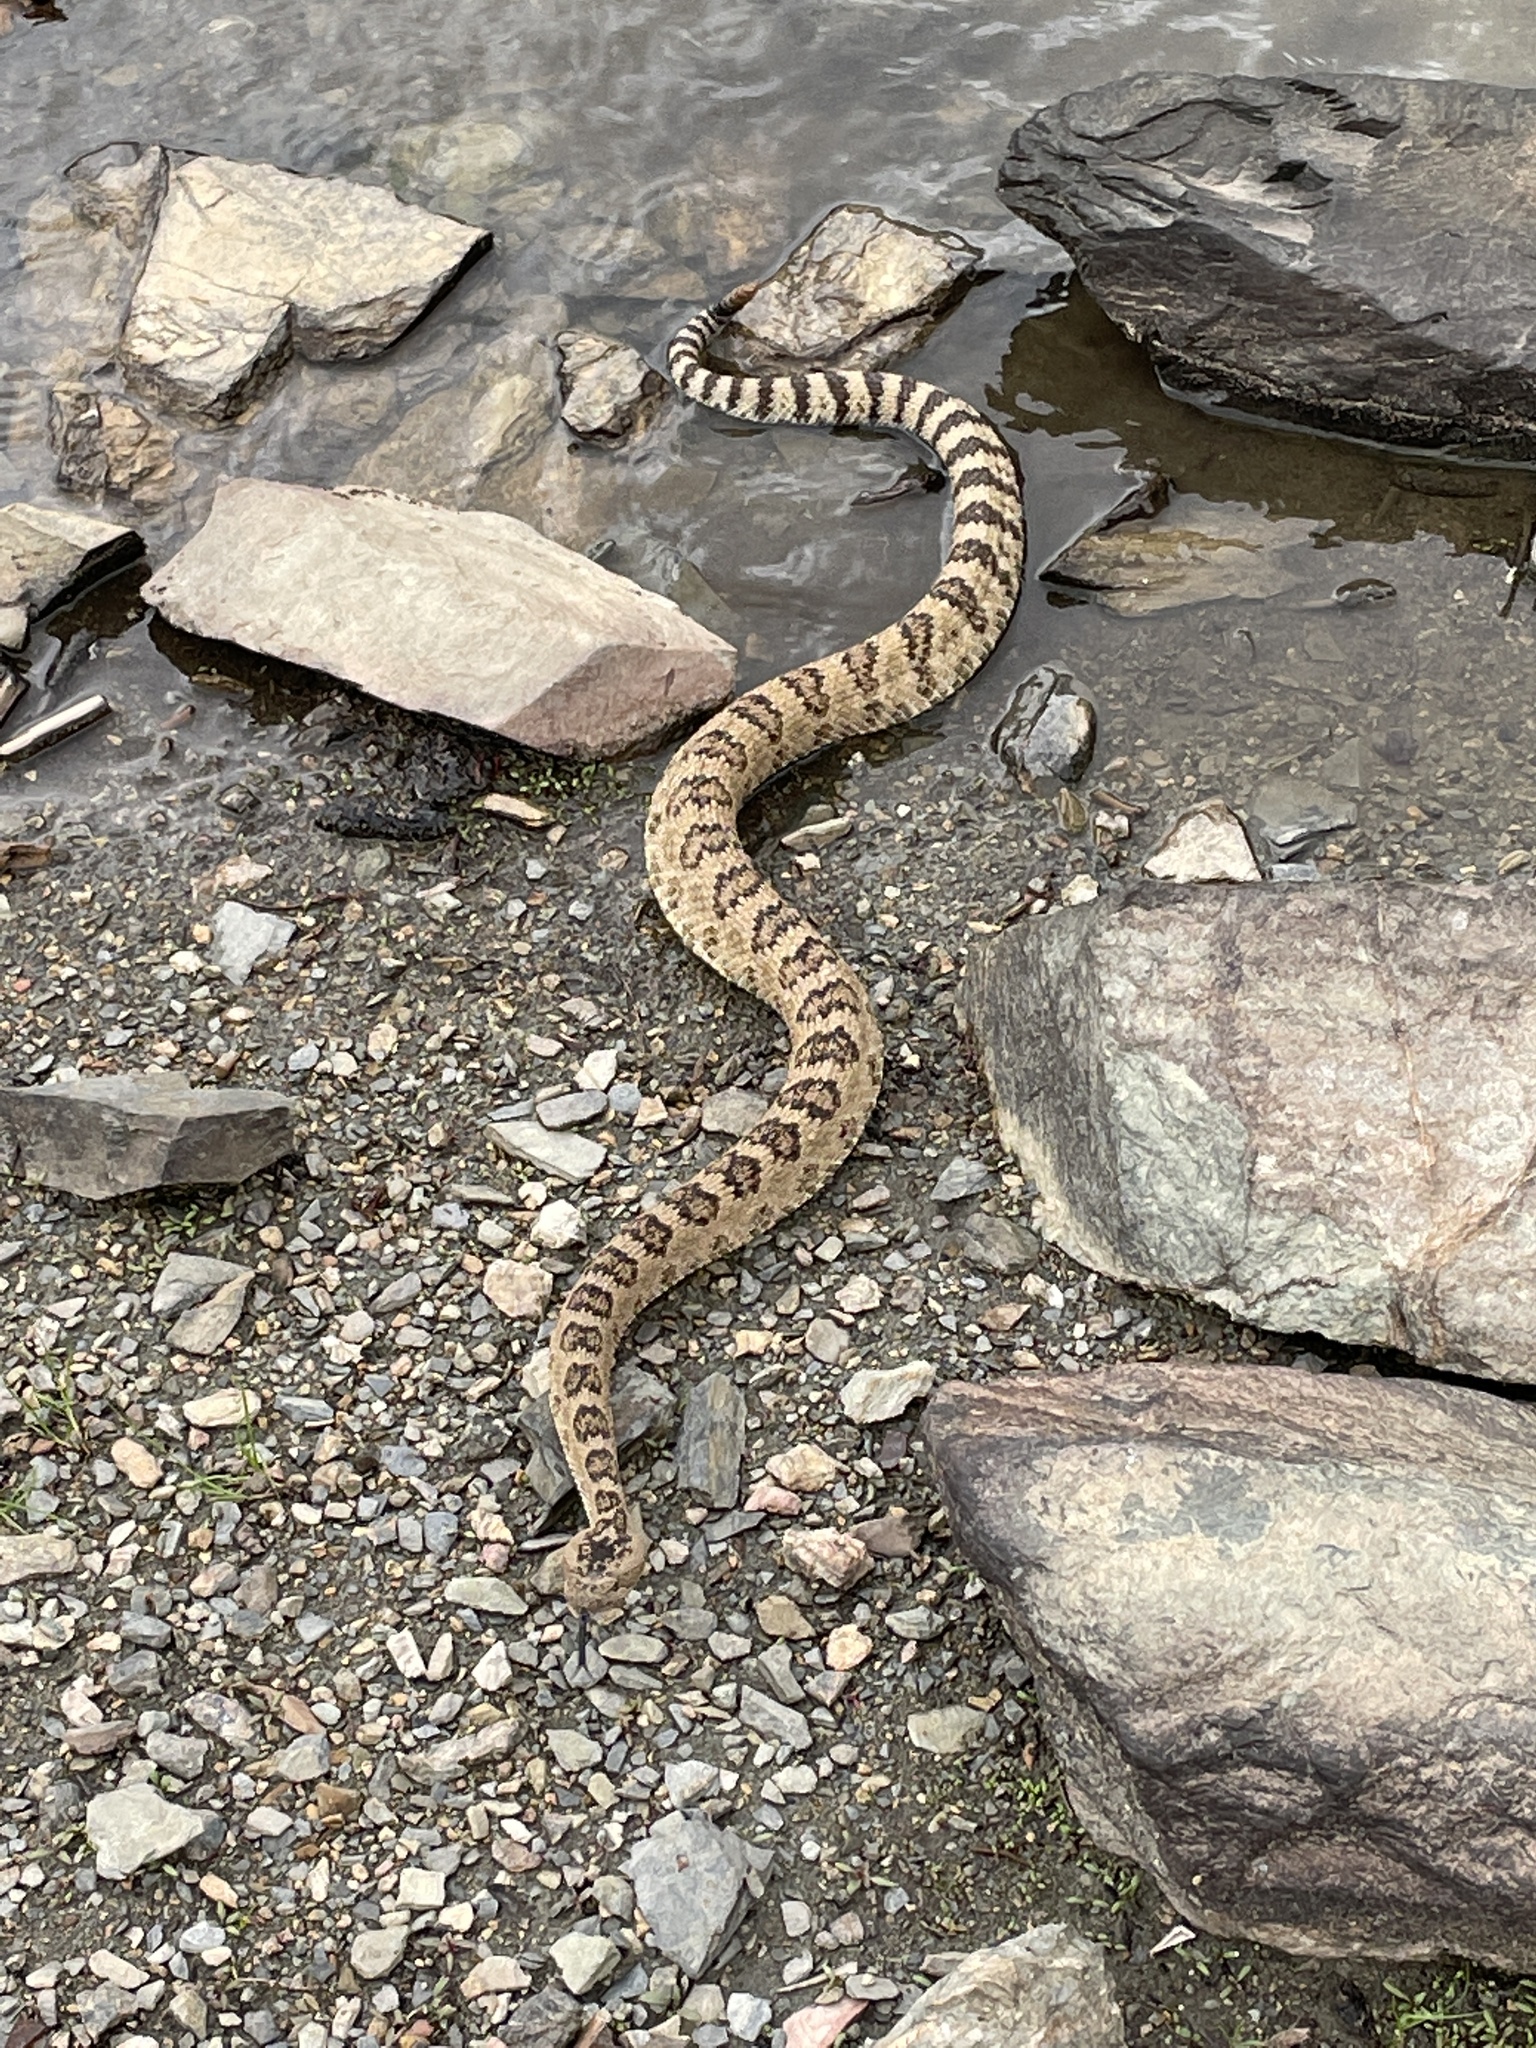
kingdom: Animalia
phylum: Chordata
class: Squamata
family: Viperidae
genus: Crotalus
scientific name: Crotalus oreganus
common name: Abyssus
